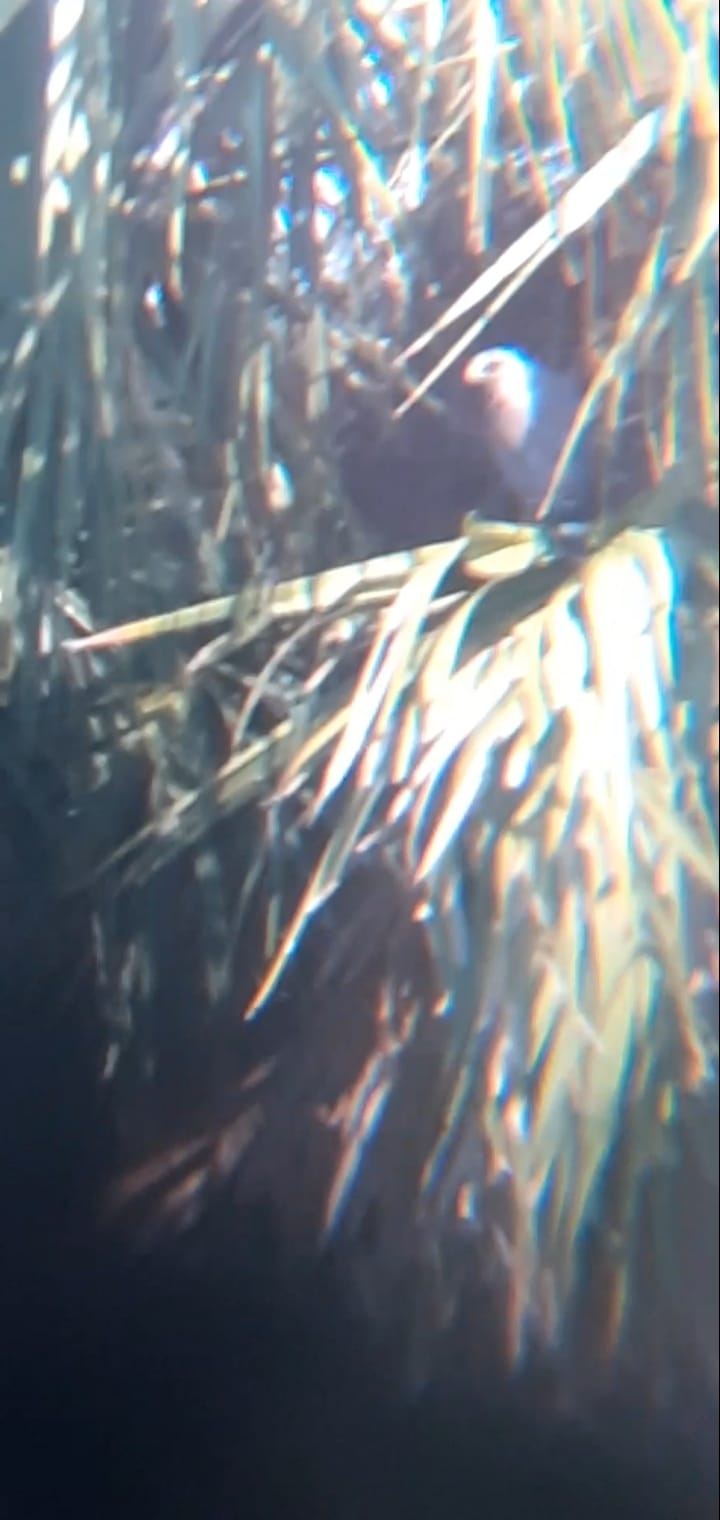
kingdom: Animalia
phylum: Chordata
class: Aves
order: Accipitriformes
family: Accipitridae
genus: Buteo
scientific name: Buteo nitidus
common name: Grey-lined hawk
